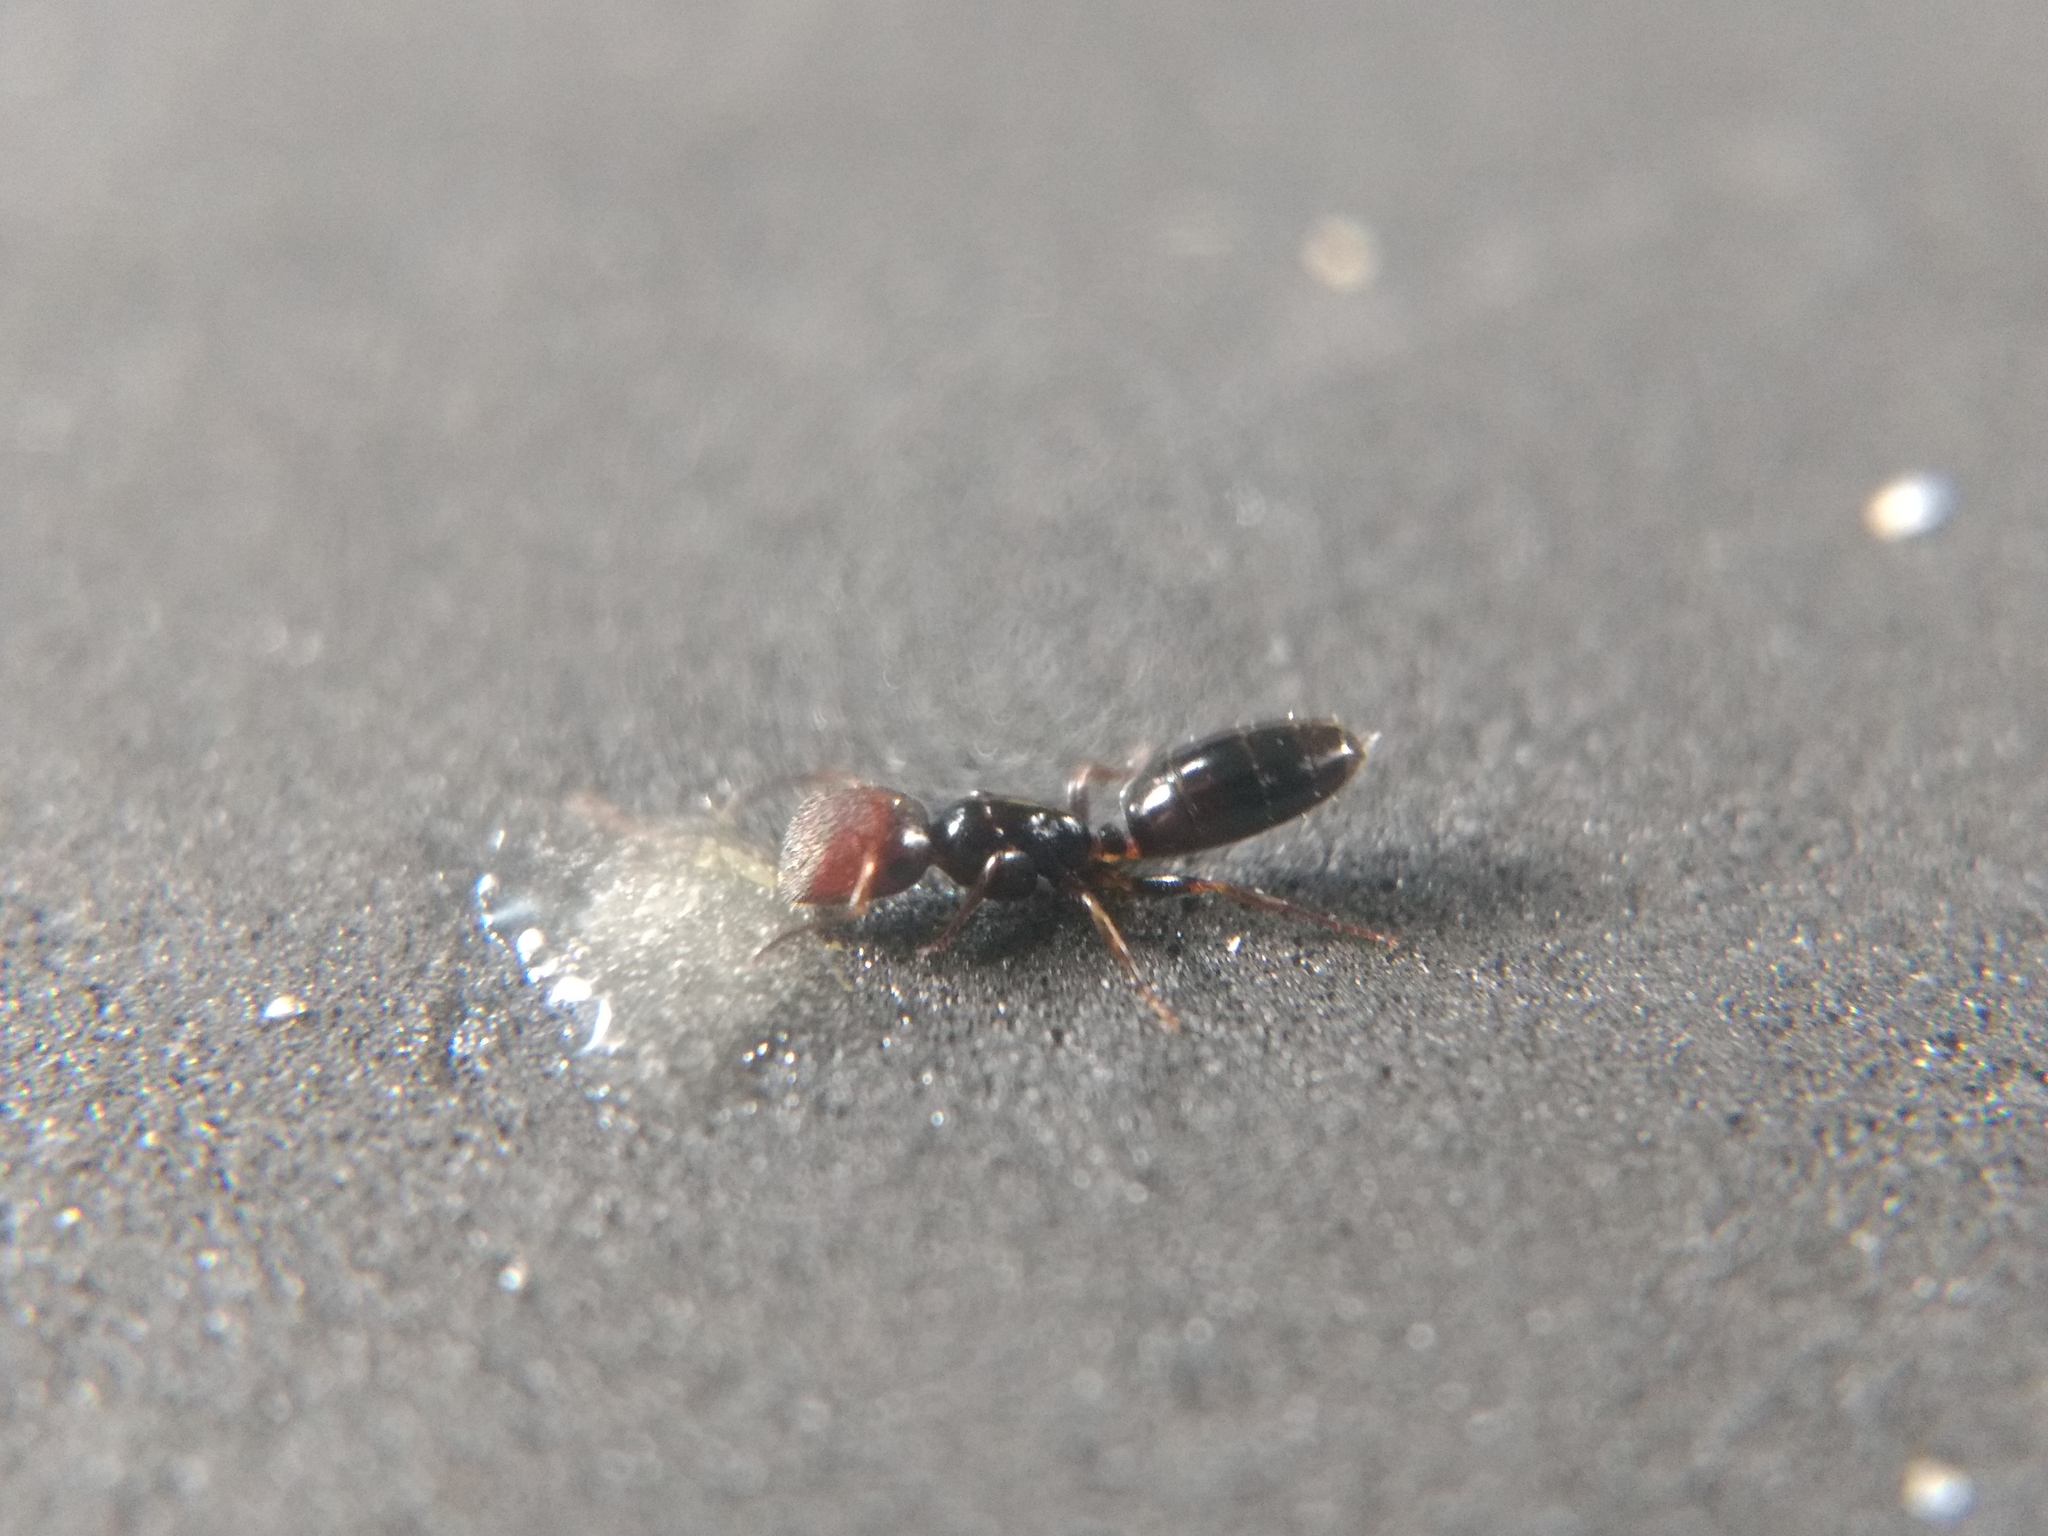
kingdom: Animalia
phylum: Arthropoda
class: Insecta
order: Hymenoptera
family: Formicidae
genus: Colobopsis
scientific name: Colobopsis
